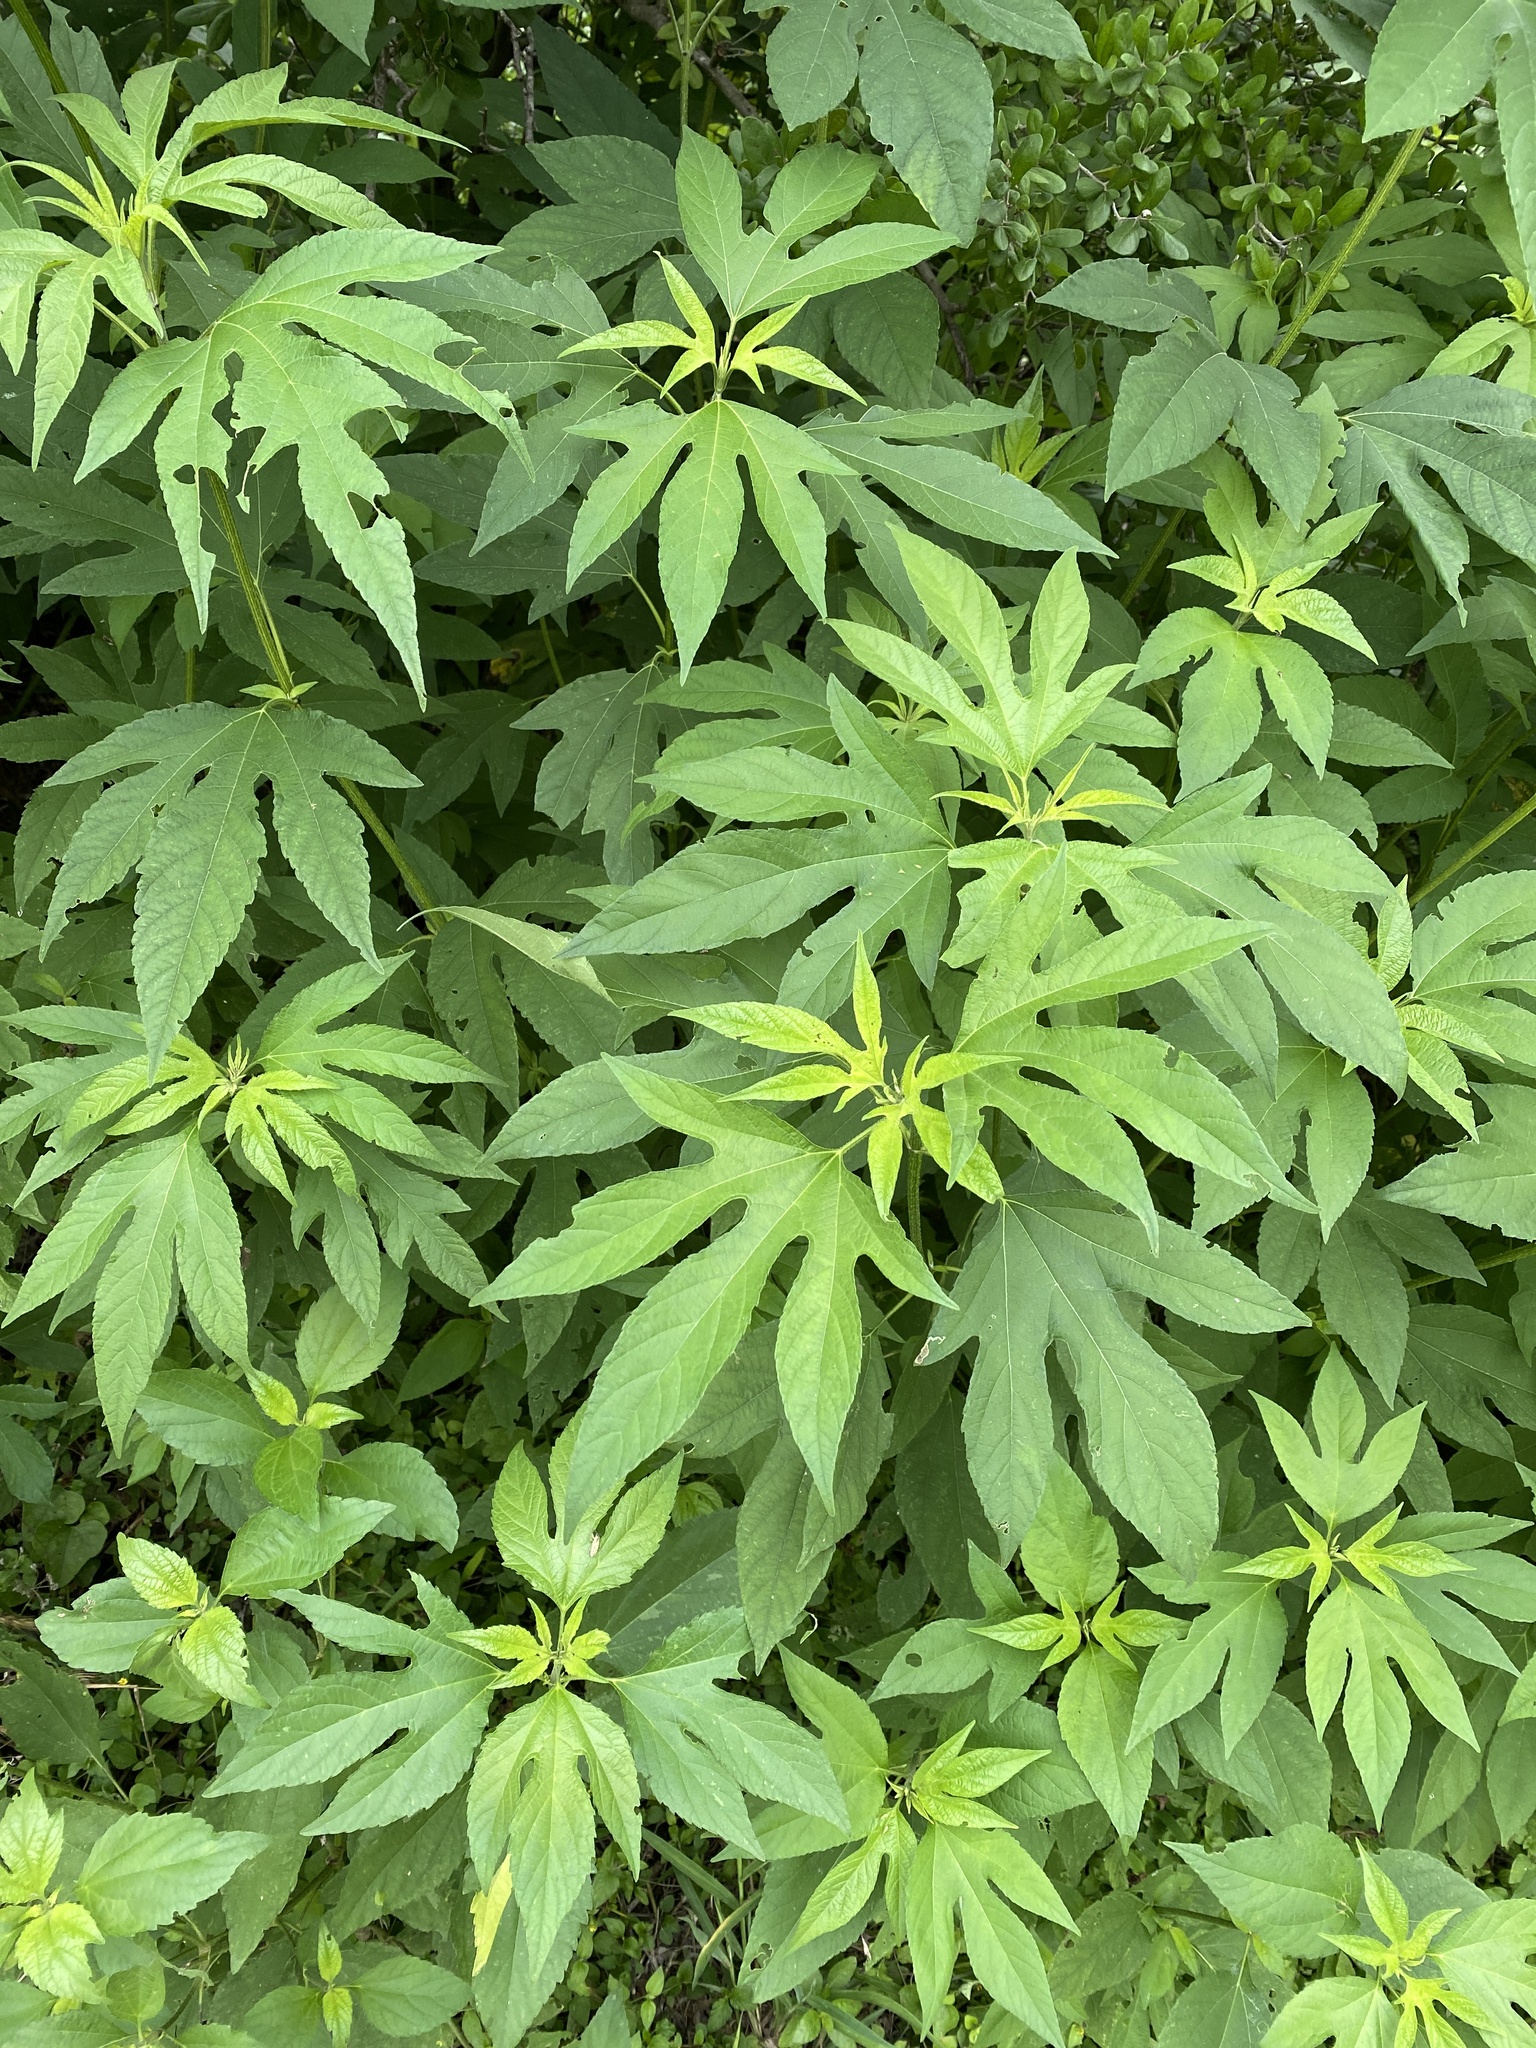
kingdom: Plantae
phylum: Tracheophyta
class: Magnoliopsida
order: Asterales
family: Asteraceae
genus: Ambrosia
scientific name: Ambrosia trifida
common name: Giant ragweed
